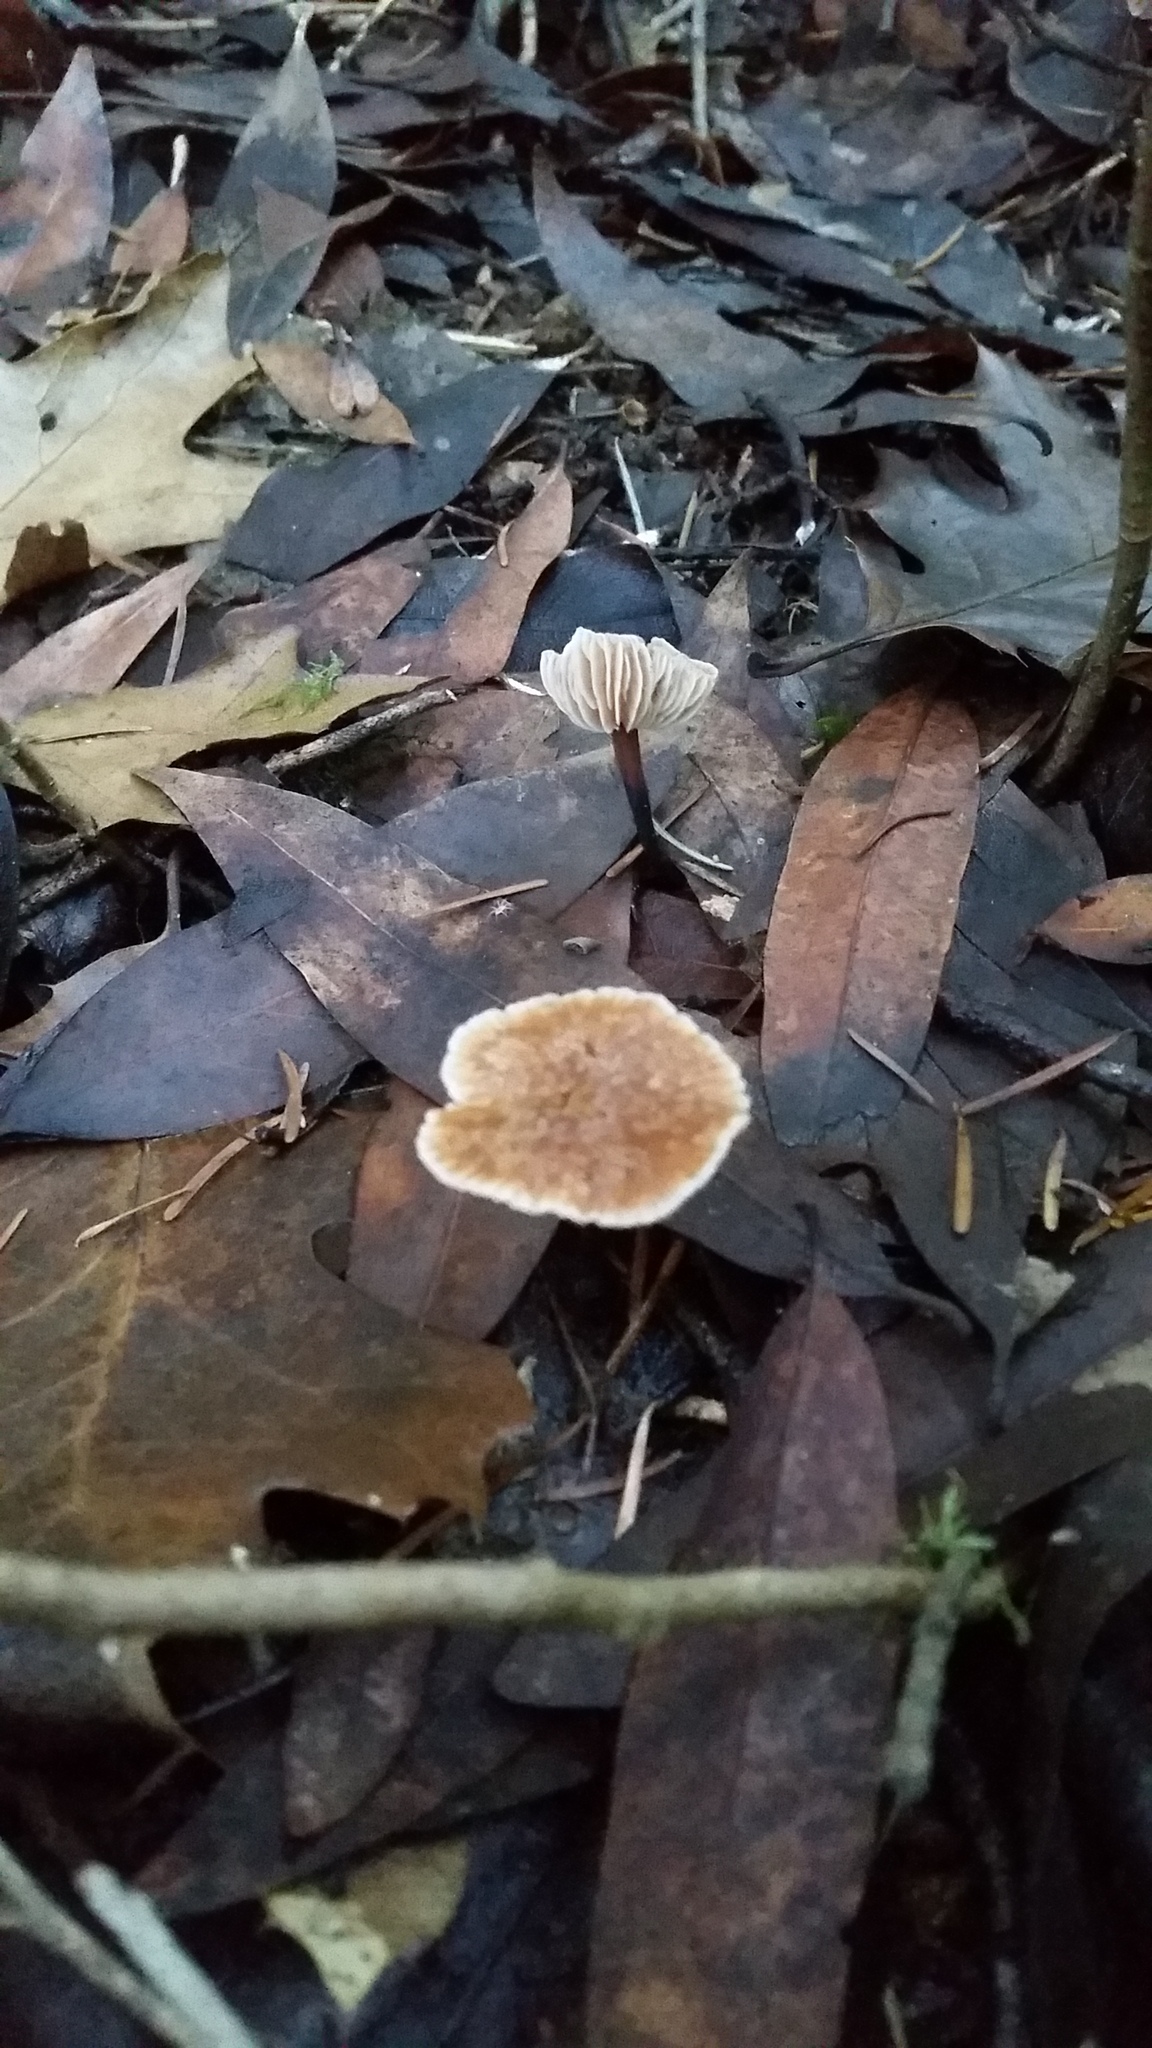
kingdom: Fungi
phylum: Basidiomycota
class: Agaricomycetes
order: Agaricales
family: Omphalotaceae
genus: Gymnopus
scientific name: Gymnopus brassicolens
